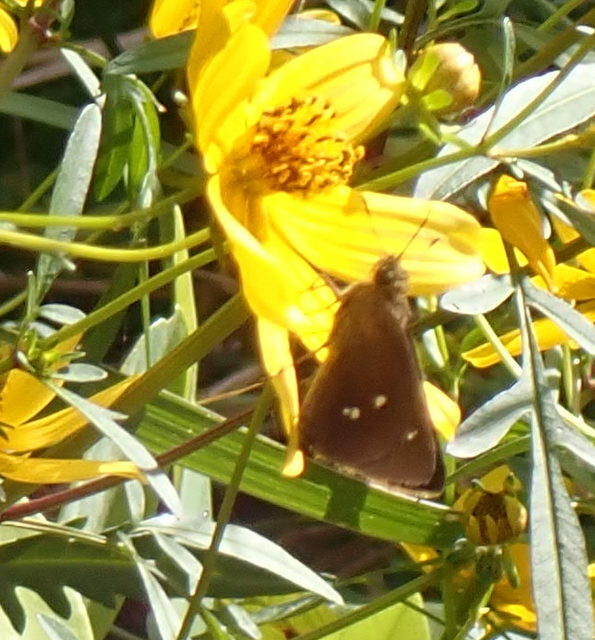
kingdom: Animalia
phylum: Arthropoda
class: Insecta
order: Lepidoptera
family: Hesperiidae
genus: Oligoria
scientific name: Oligoria maculata
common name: Twin-spot skipper
